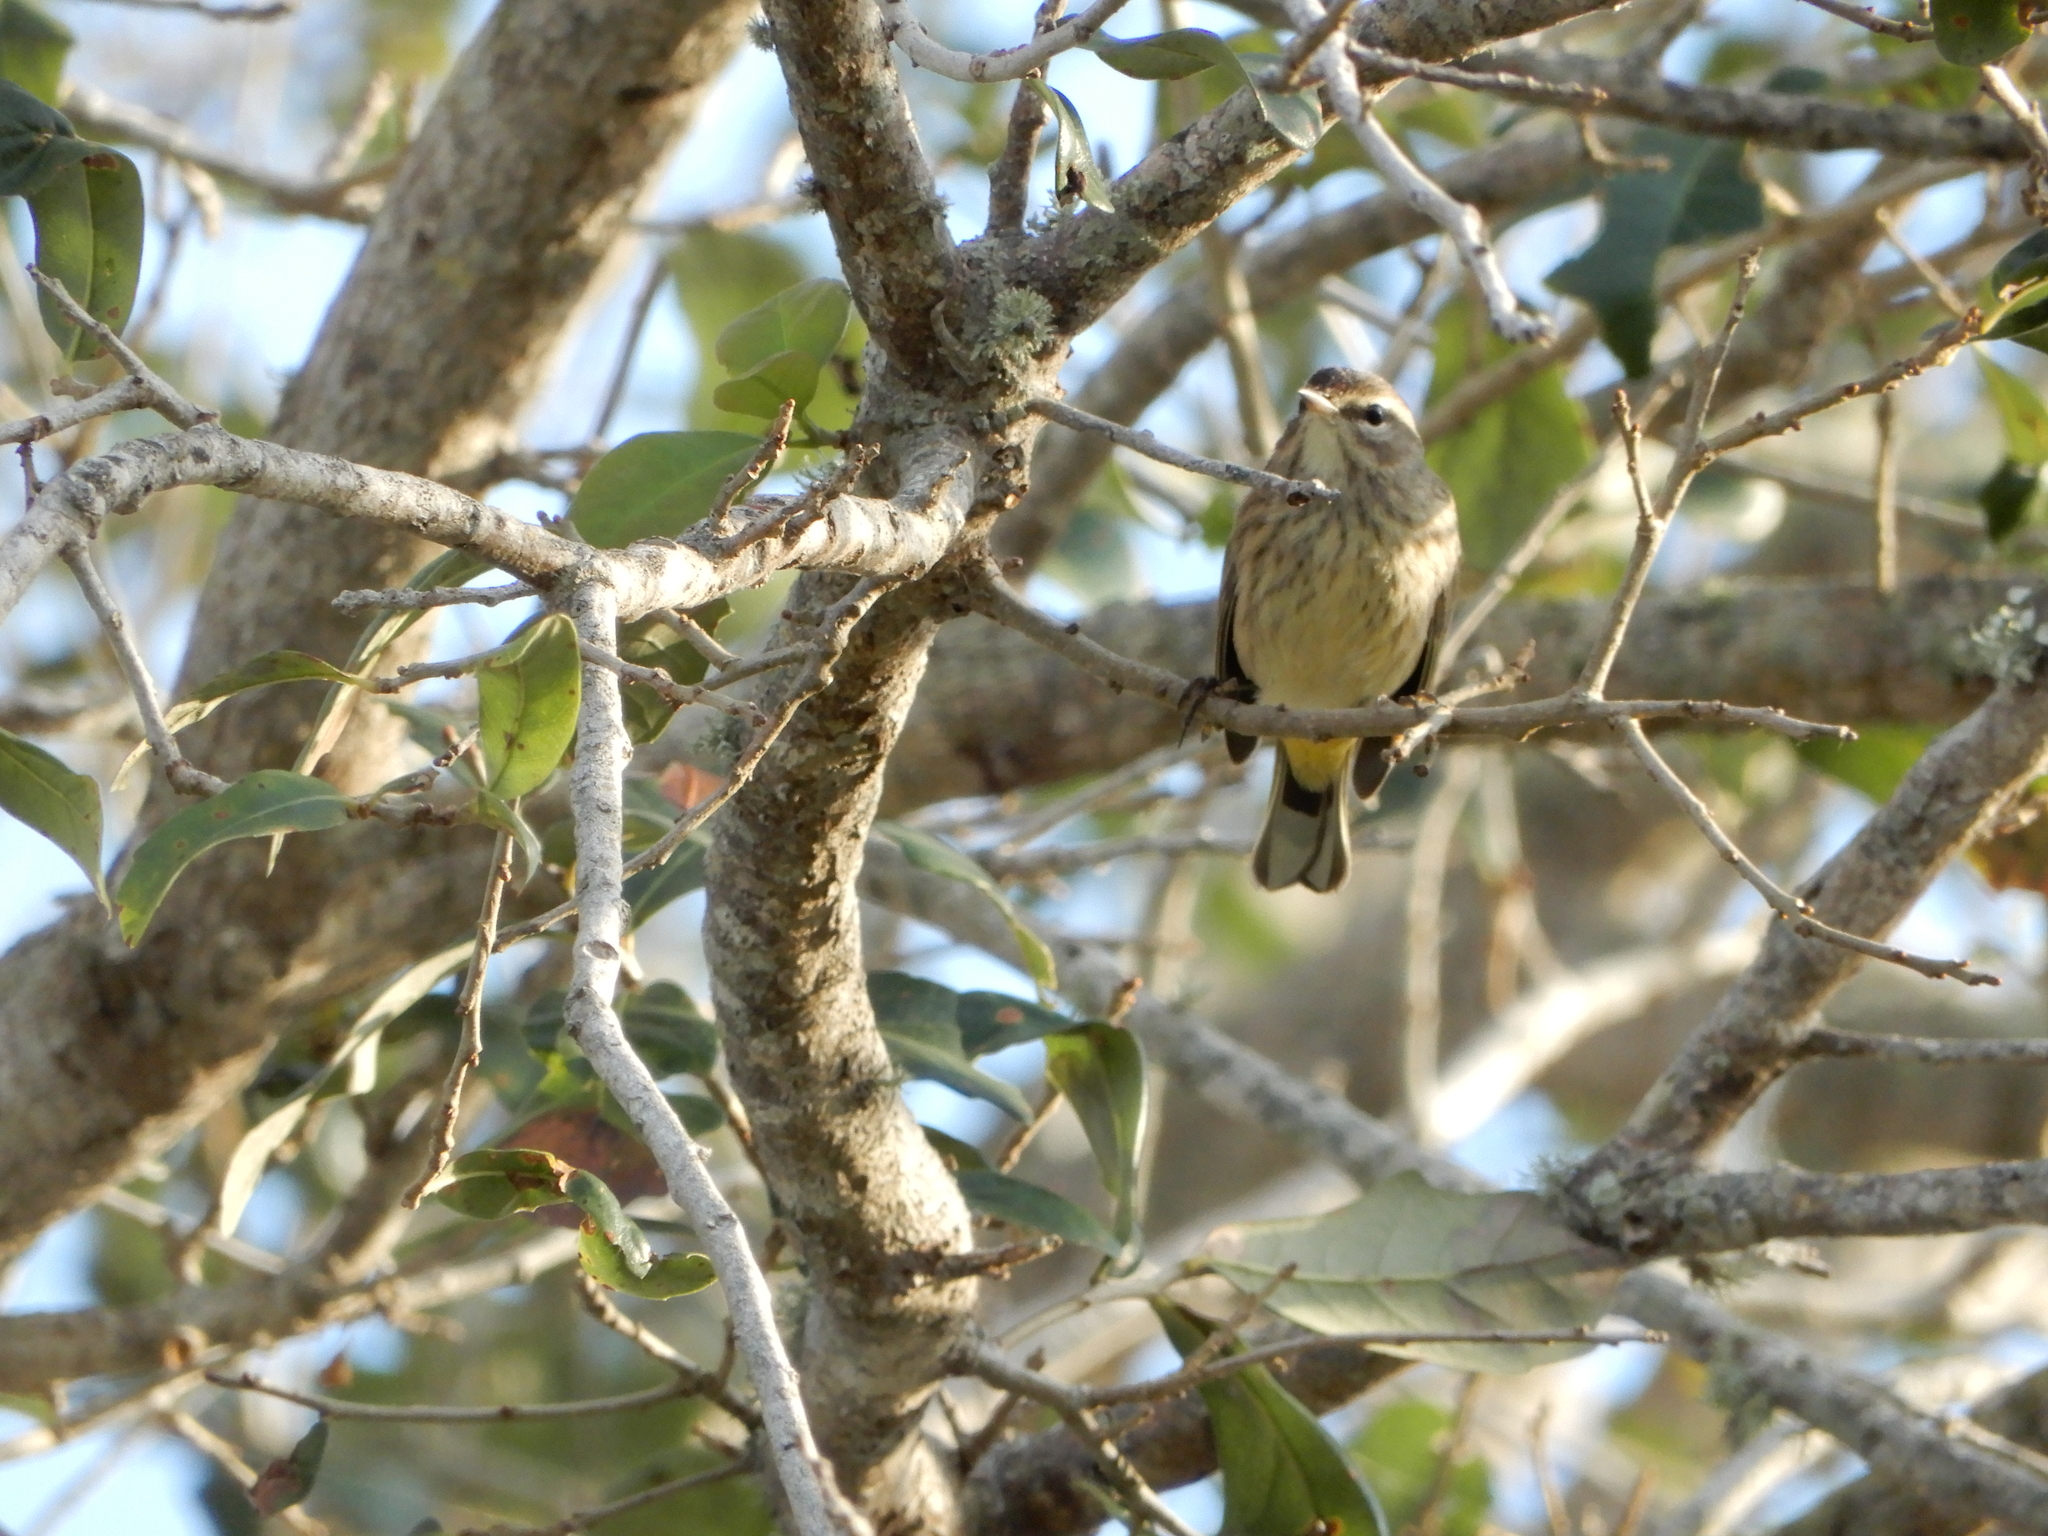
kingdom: Animalia
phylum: Chordata
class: Aves
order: Passeriformes
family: Parulidae
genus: Setophaga
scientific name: Setophaga palmarum
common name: Palm warbler
